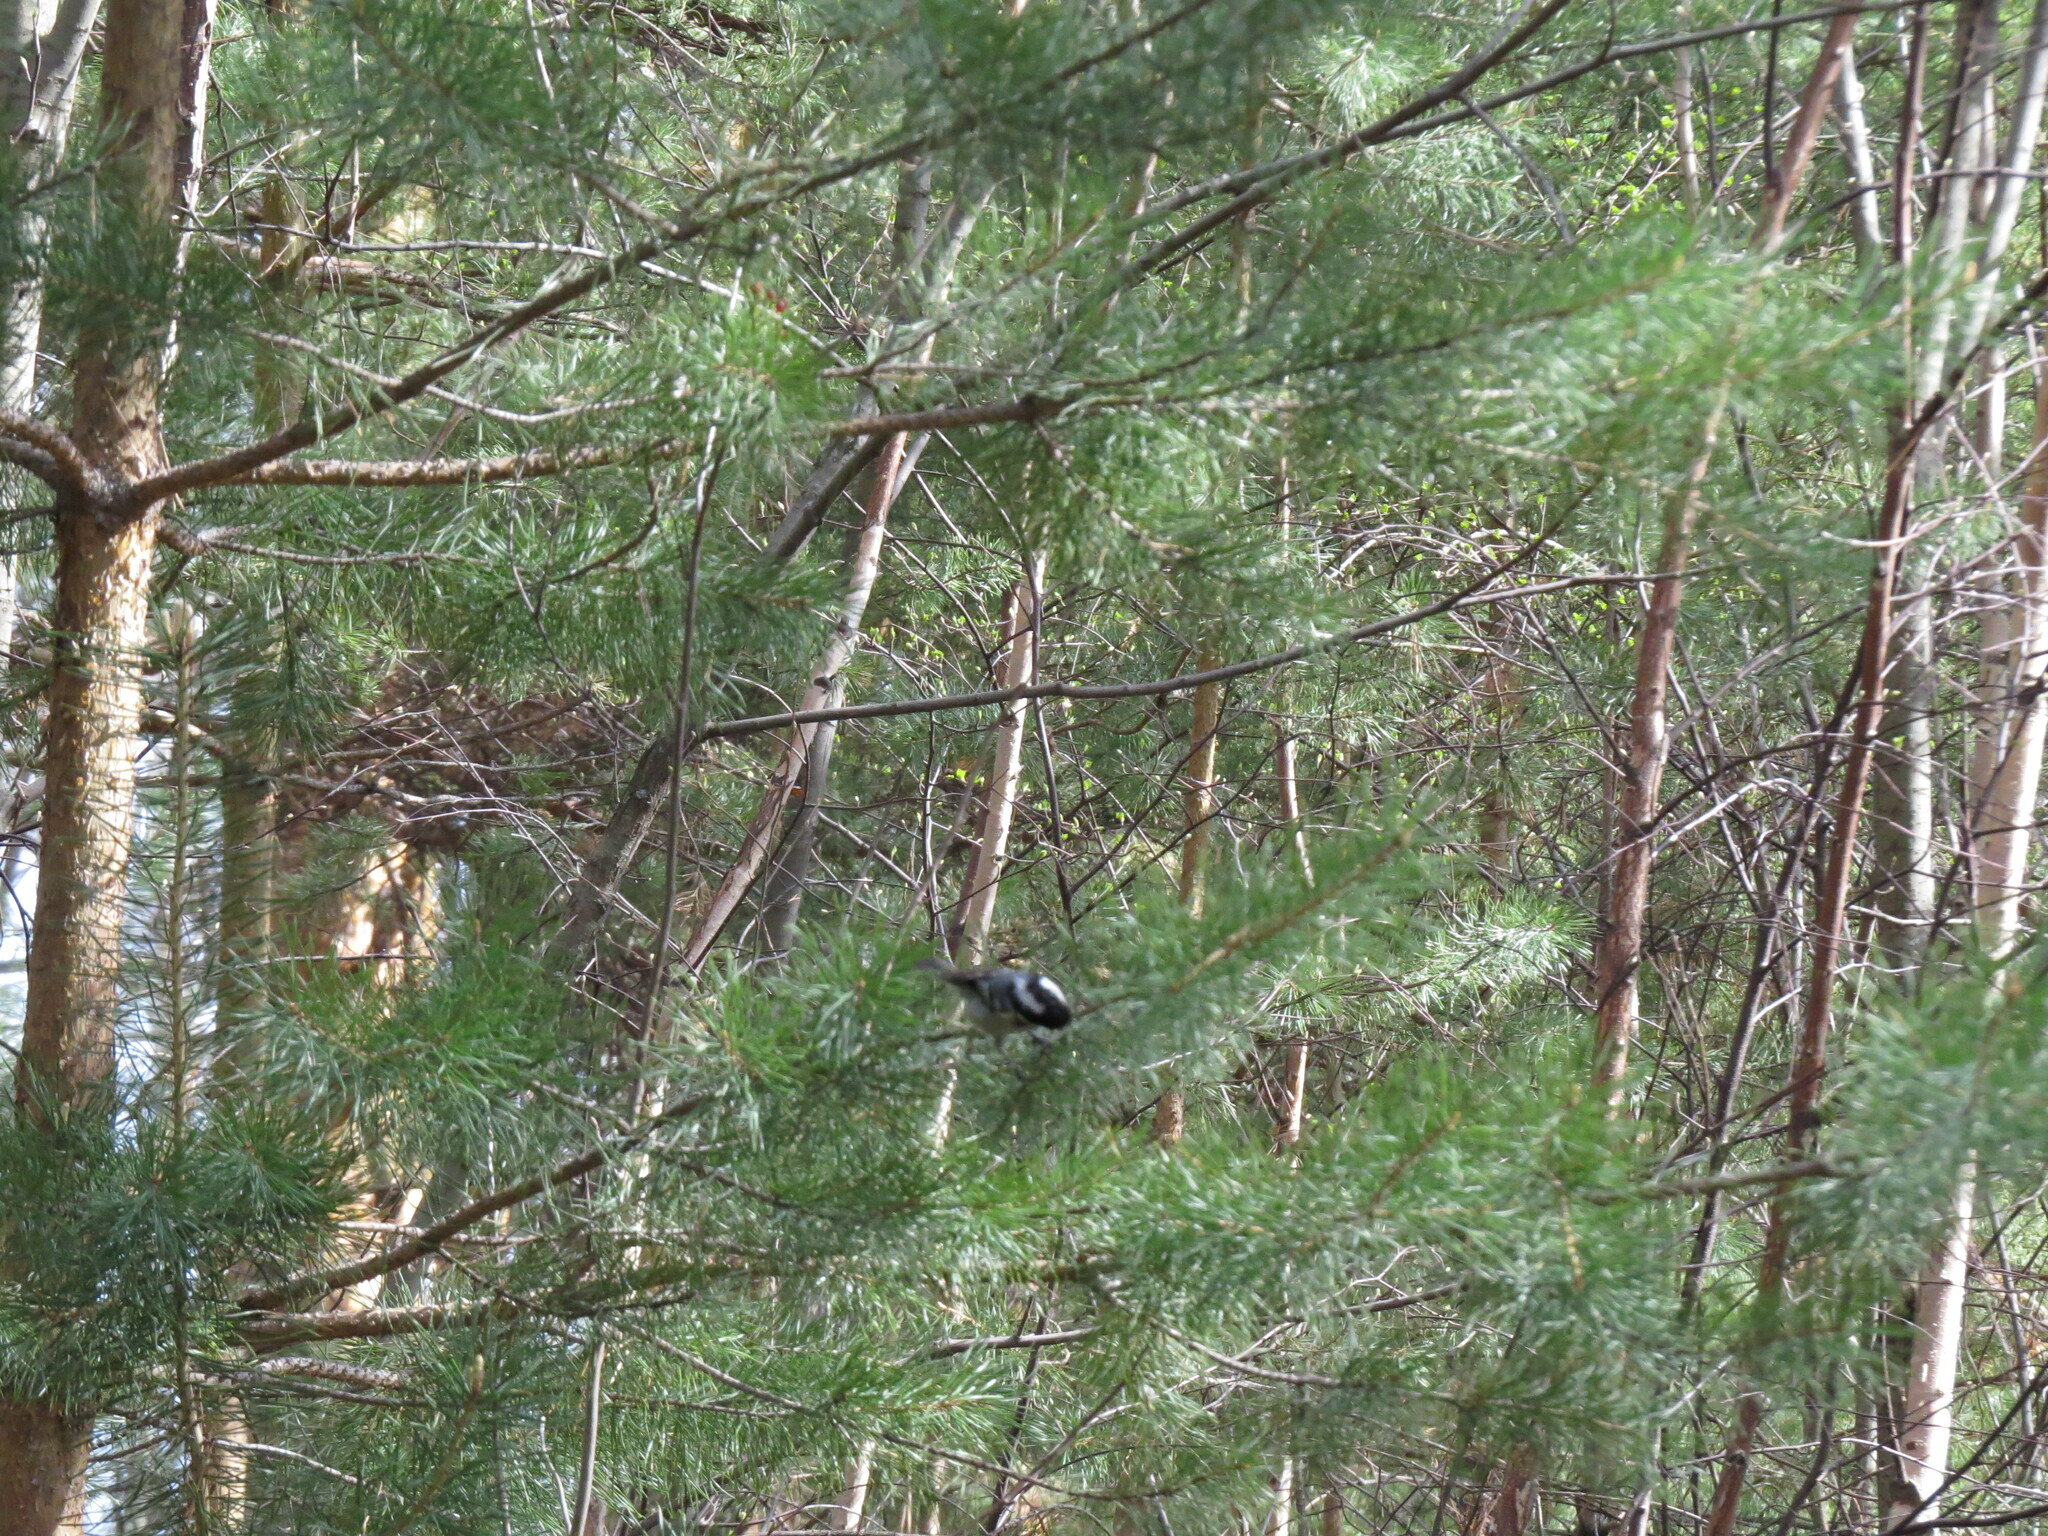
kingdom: Animalia
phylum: Chordata
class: Aves
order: Passeriformes
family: Paridae
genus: Periparus
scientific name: Periparus ater
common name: Coal tit
